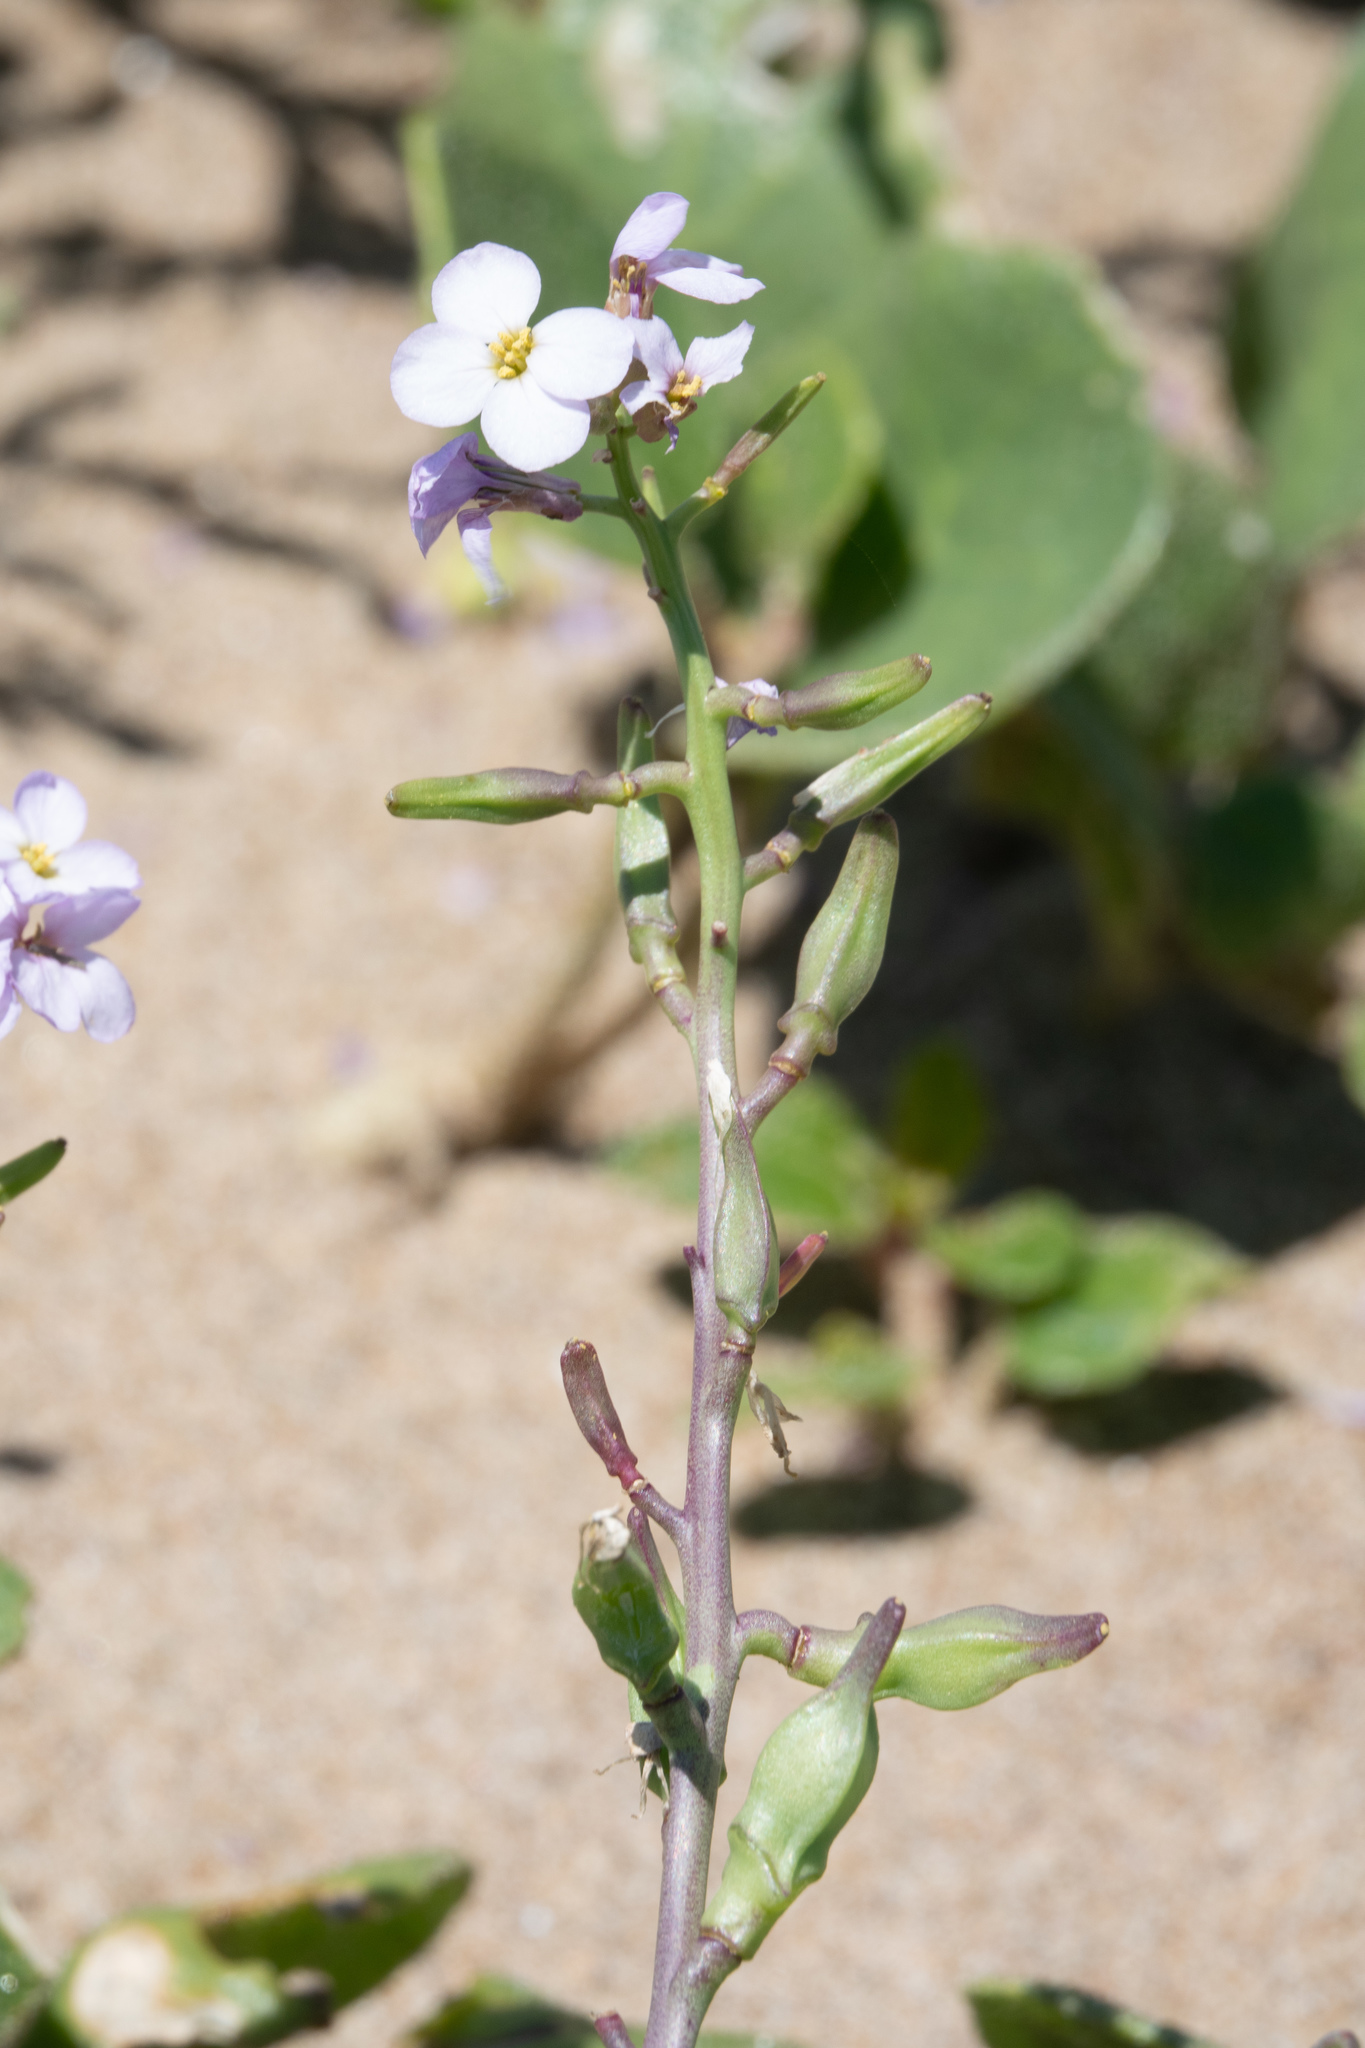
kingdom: Plantae
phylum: Tracheophyta
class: Magnoliopsida
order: Brassicales
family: Brassicaceae
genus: Cakile
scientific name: Cakile maritima
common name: Sea rocket
